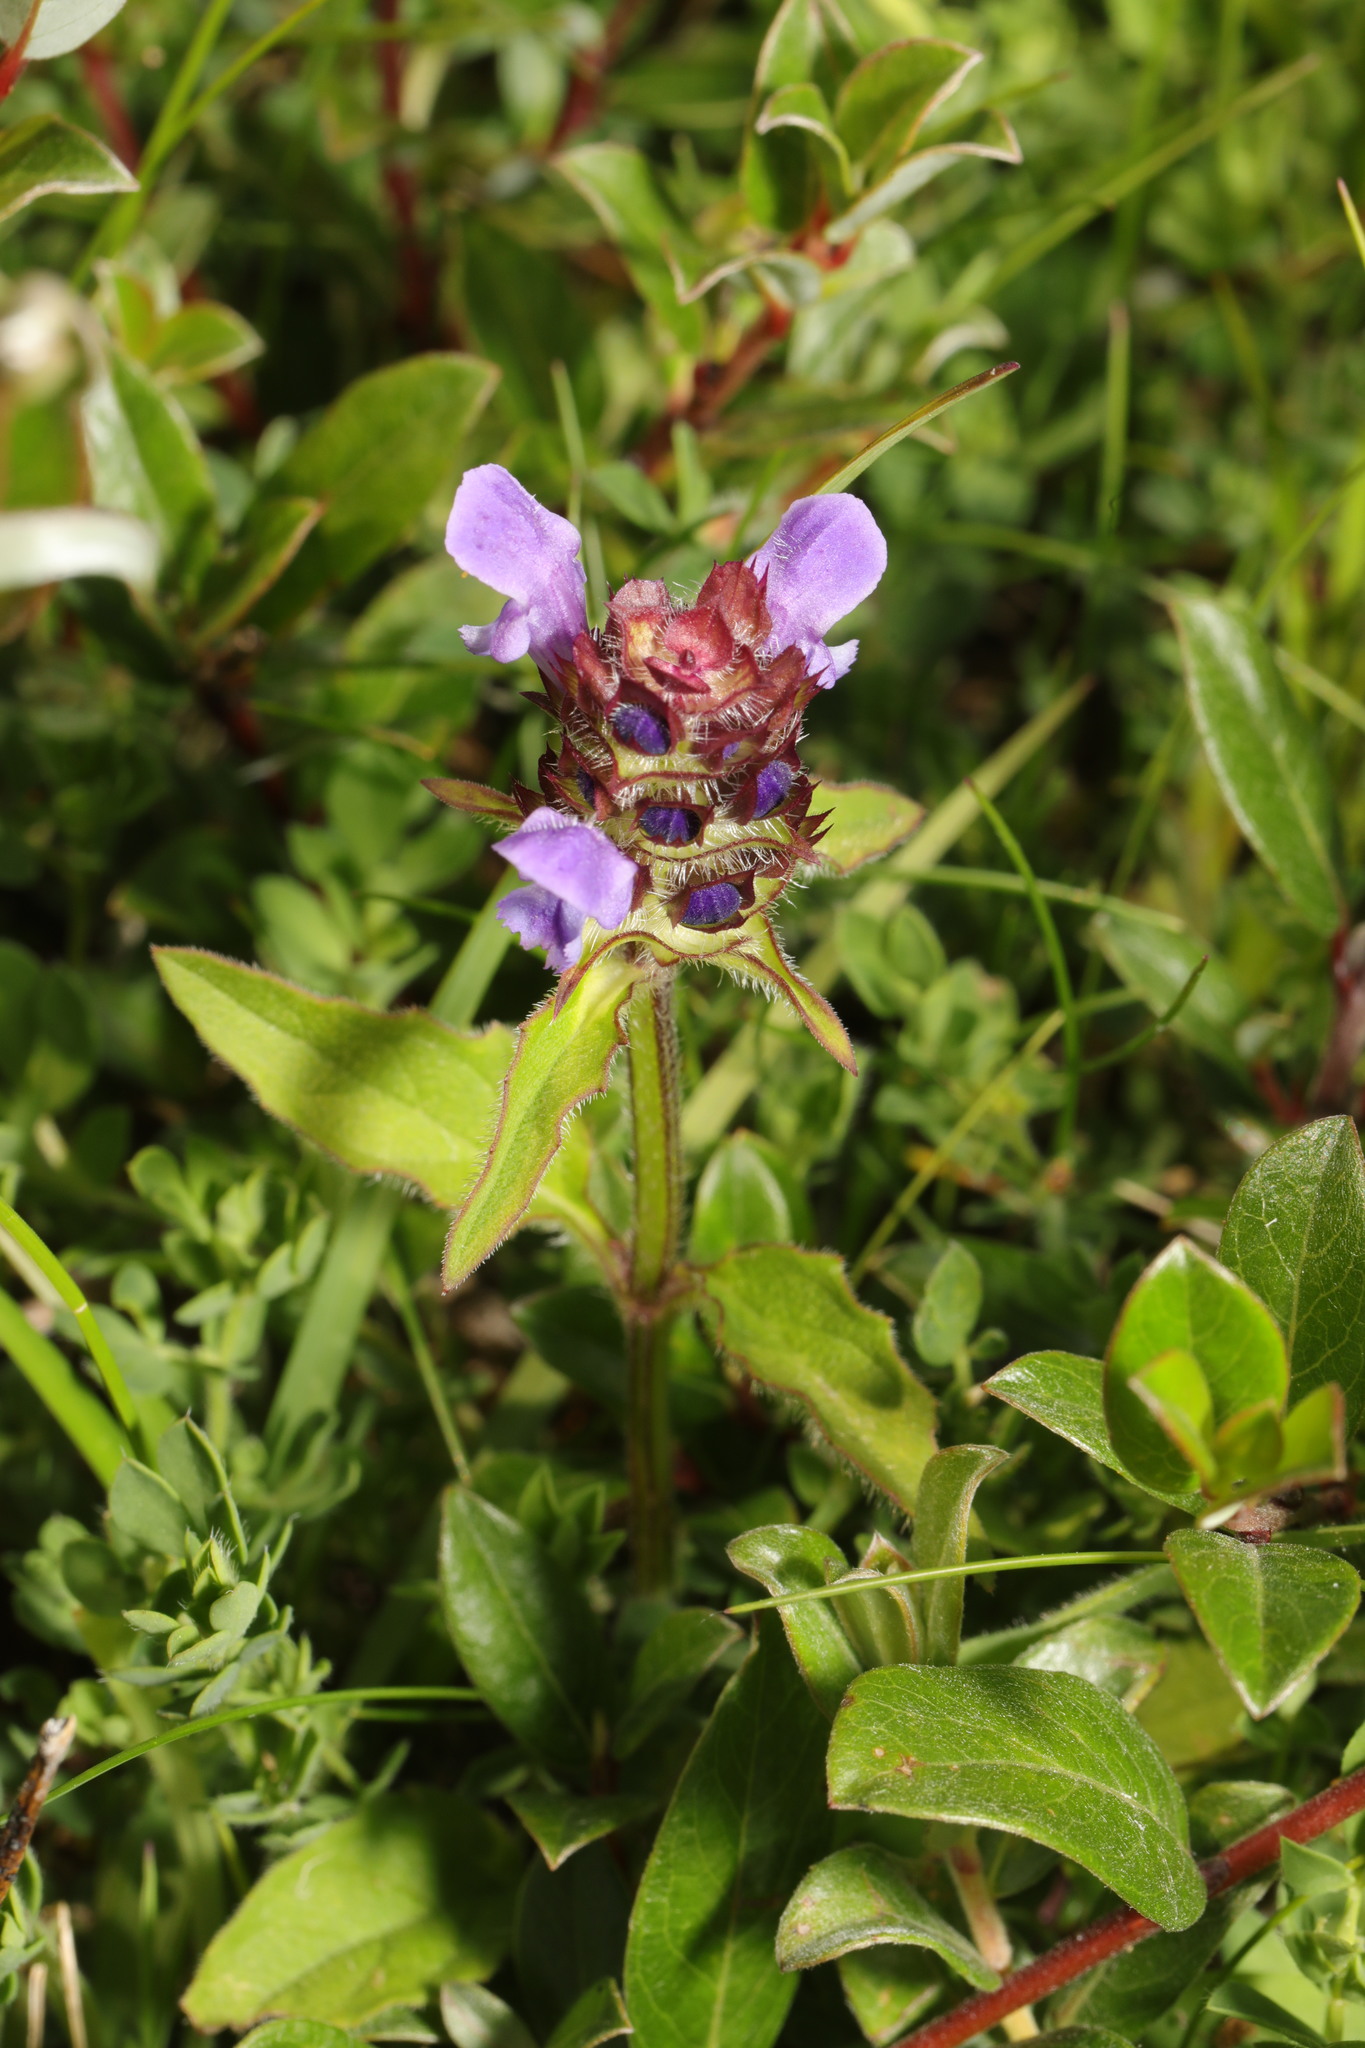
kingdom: Plantae
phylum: Tracheophyta
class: Magnoliopsida
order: Lamiales
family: Lamiaceae
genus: Prunella
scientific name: Prunella vulgaris
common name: Heal-all
